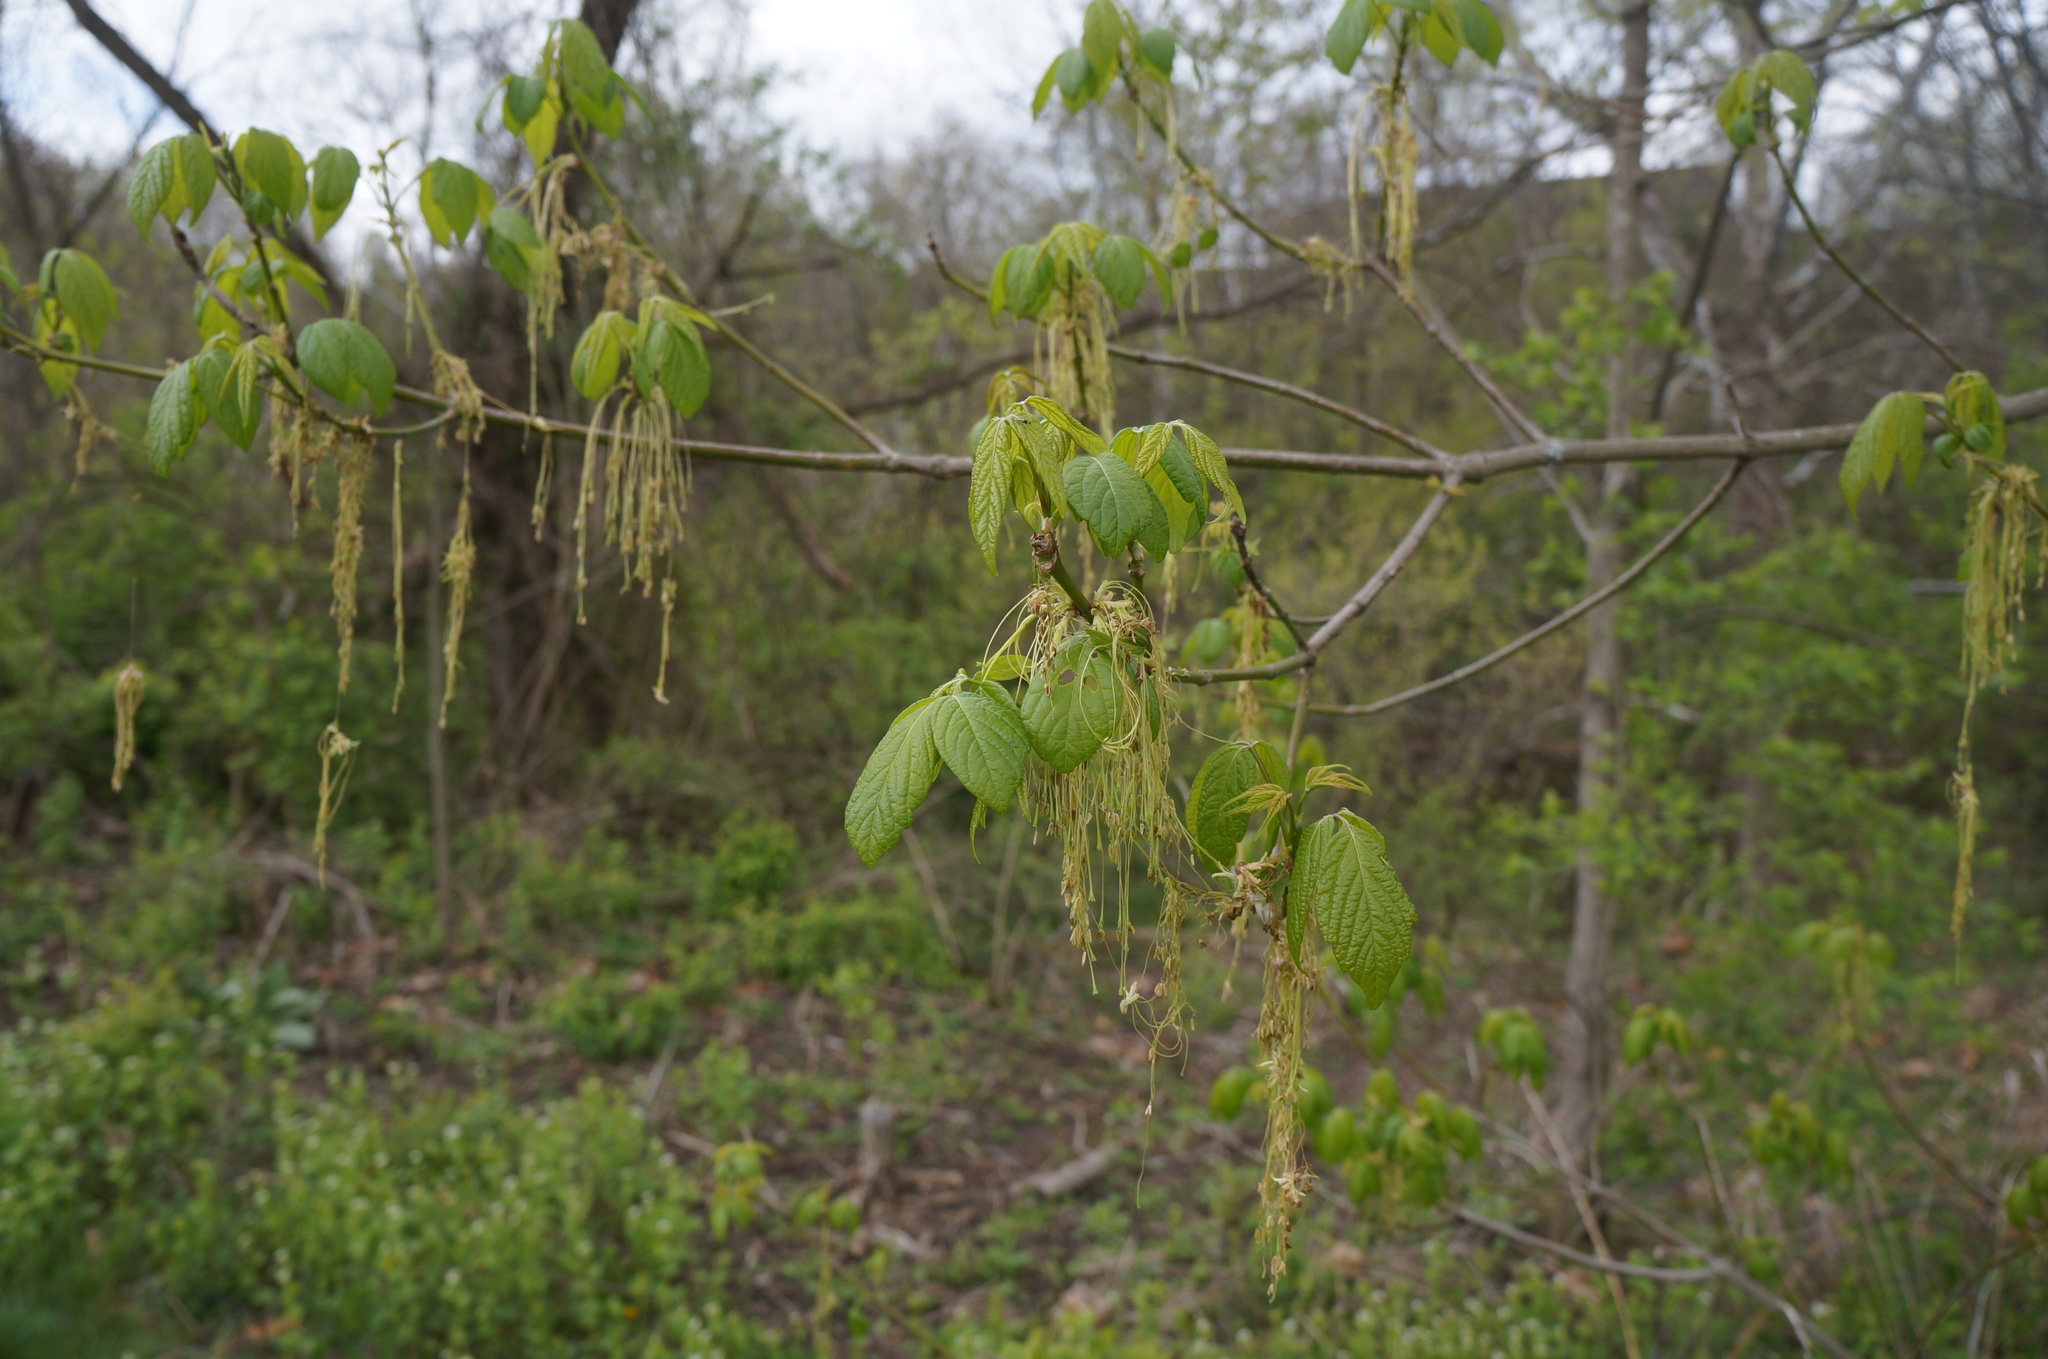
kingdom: Plantae
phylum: Tracheophyta
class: Magnoliopsida
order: Sapindales
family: Sapindaceae
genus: Acer
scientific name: Acer negundo
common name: Ashleaf maple
